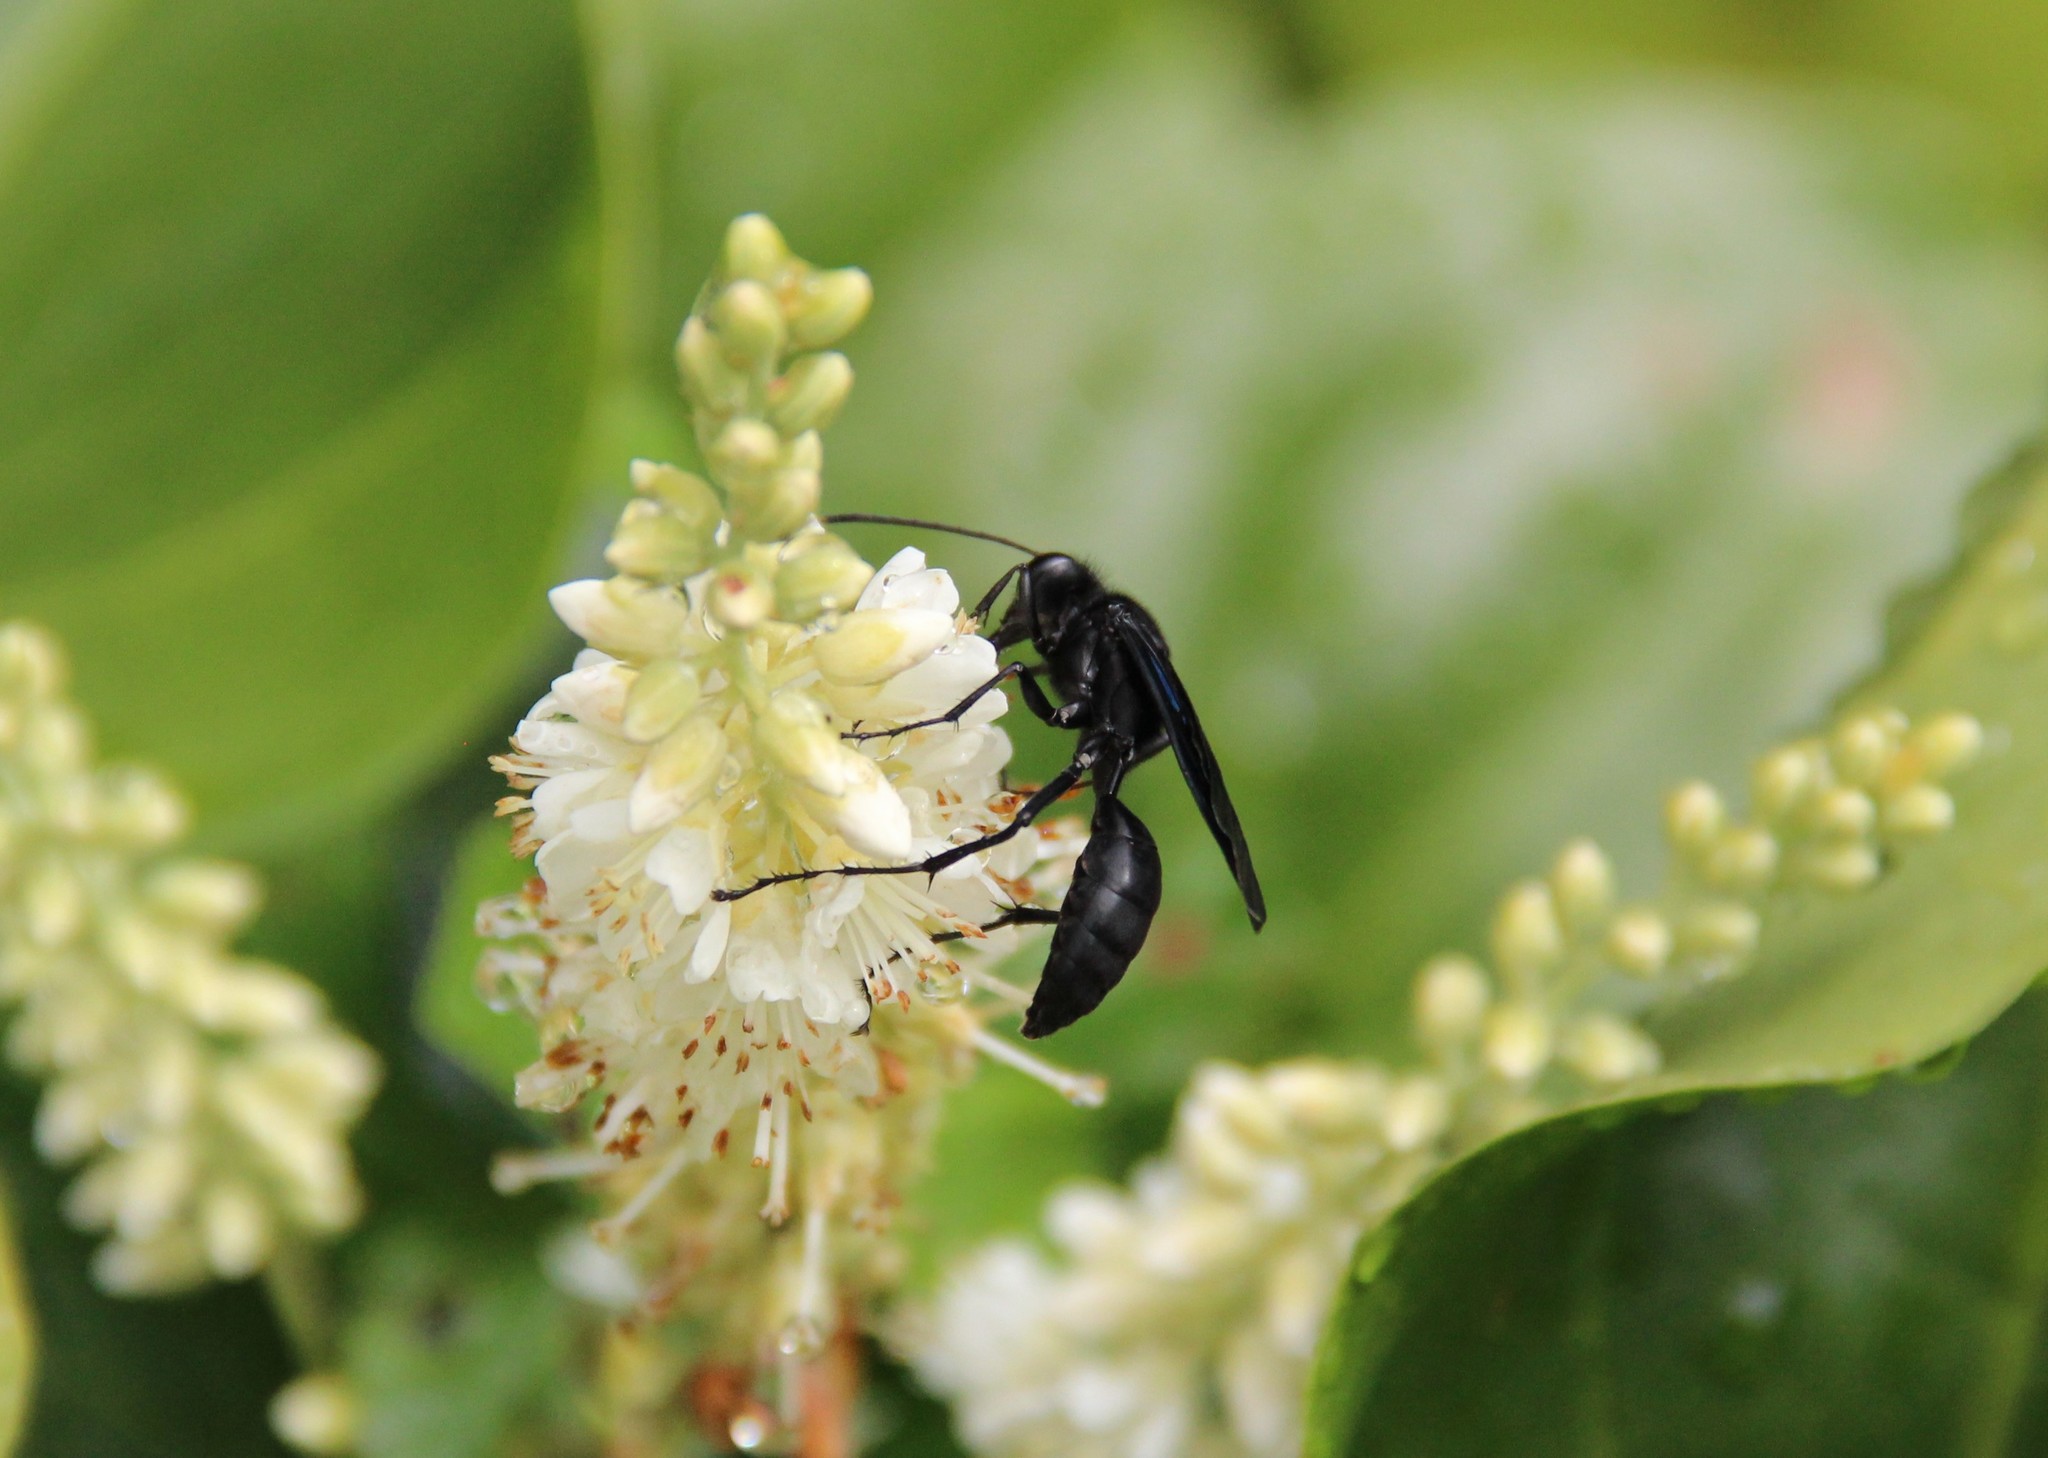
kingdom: Animalia
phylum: Arthropoda
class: Insecta
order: Hymenoptera
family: Sphecidae
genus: Sphex
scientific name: Sphex pensylvanicus
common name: Great black digger wasp
